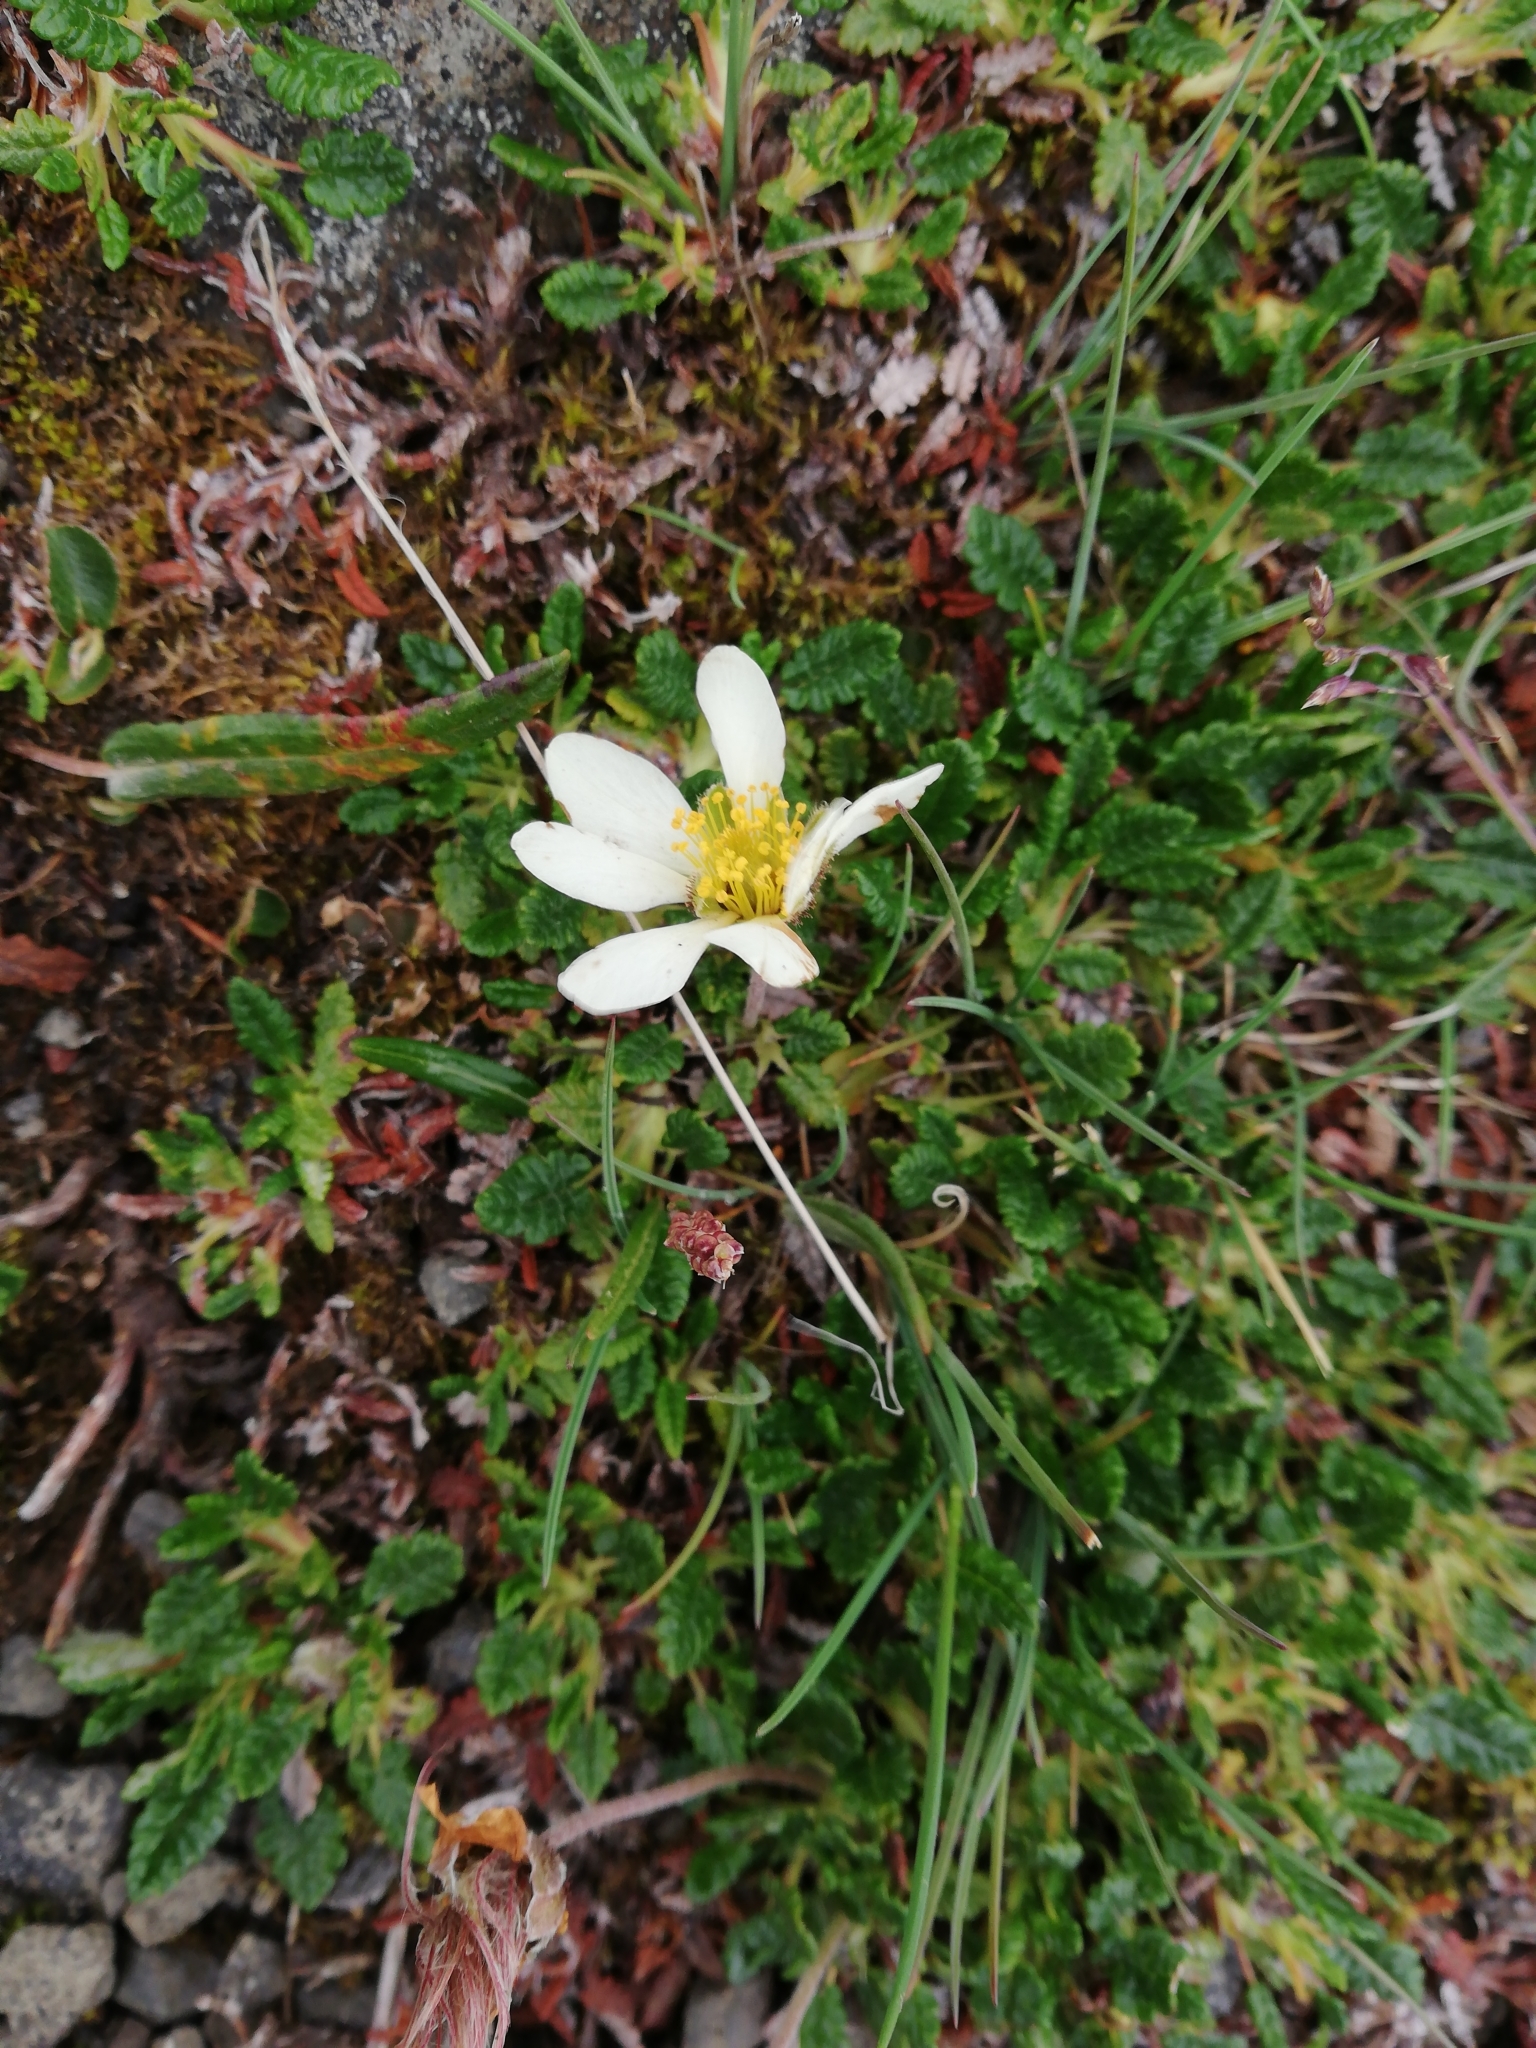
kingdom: Plantae
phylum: Tracheophyta
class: Magnoliopsida
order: Rosales
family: Rosaceae
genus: Dryas
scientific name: Dryas octopetala
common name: Eight-petal mountain-avens
